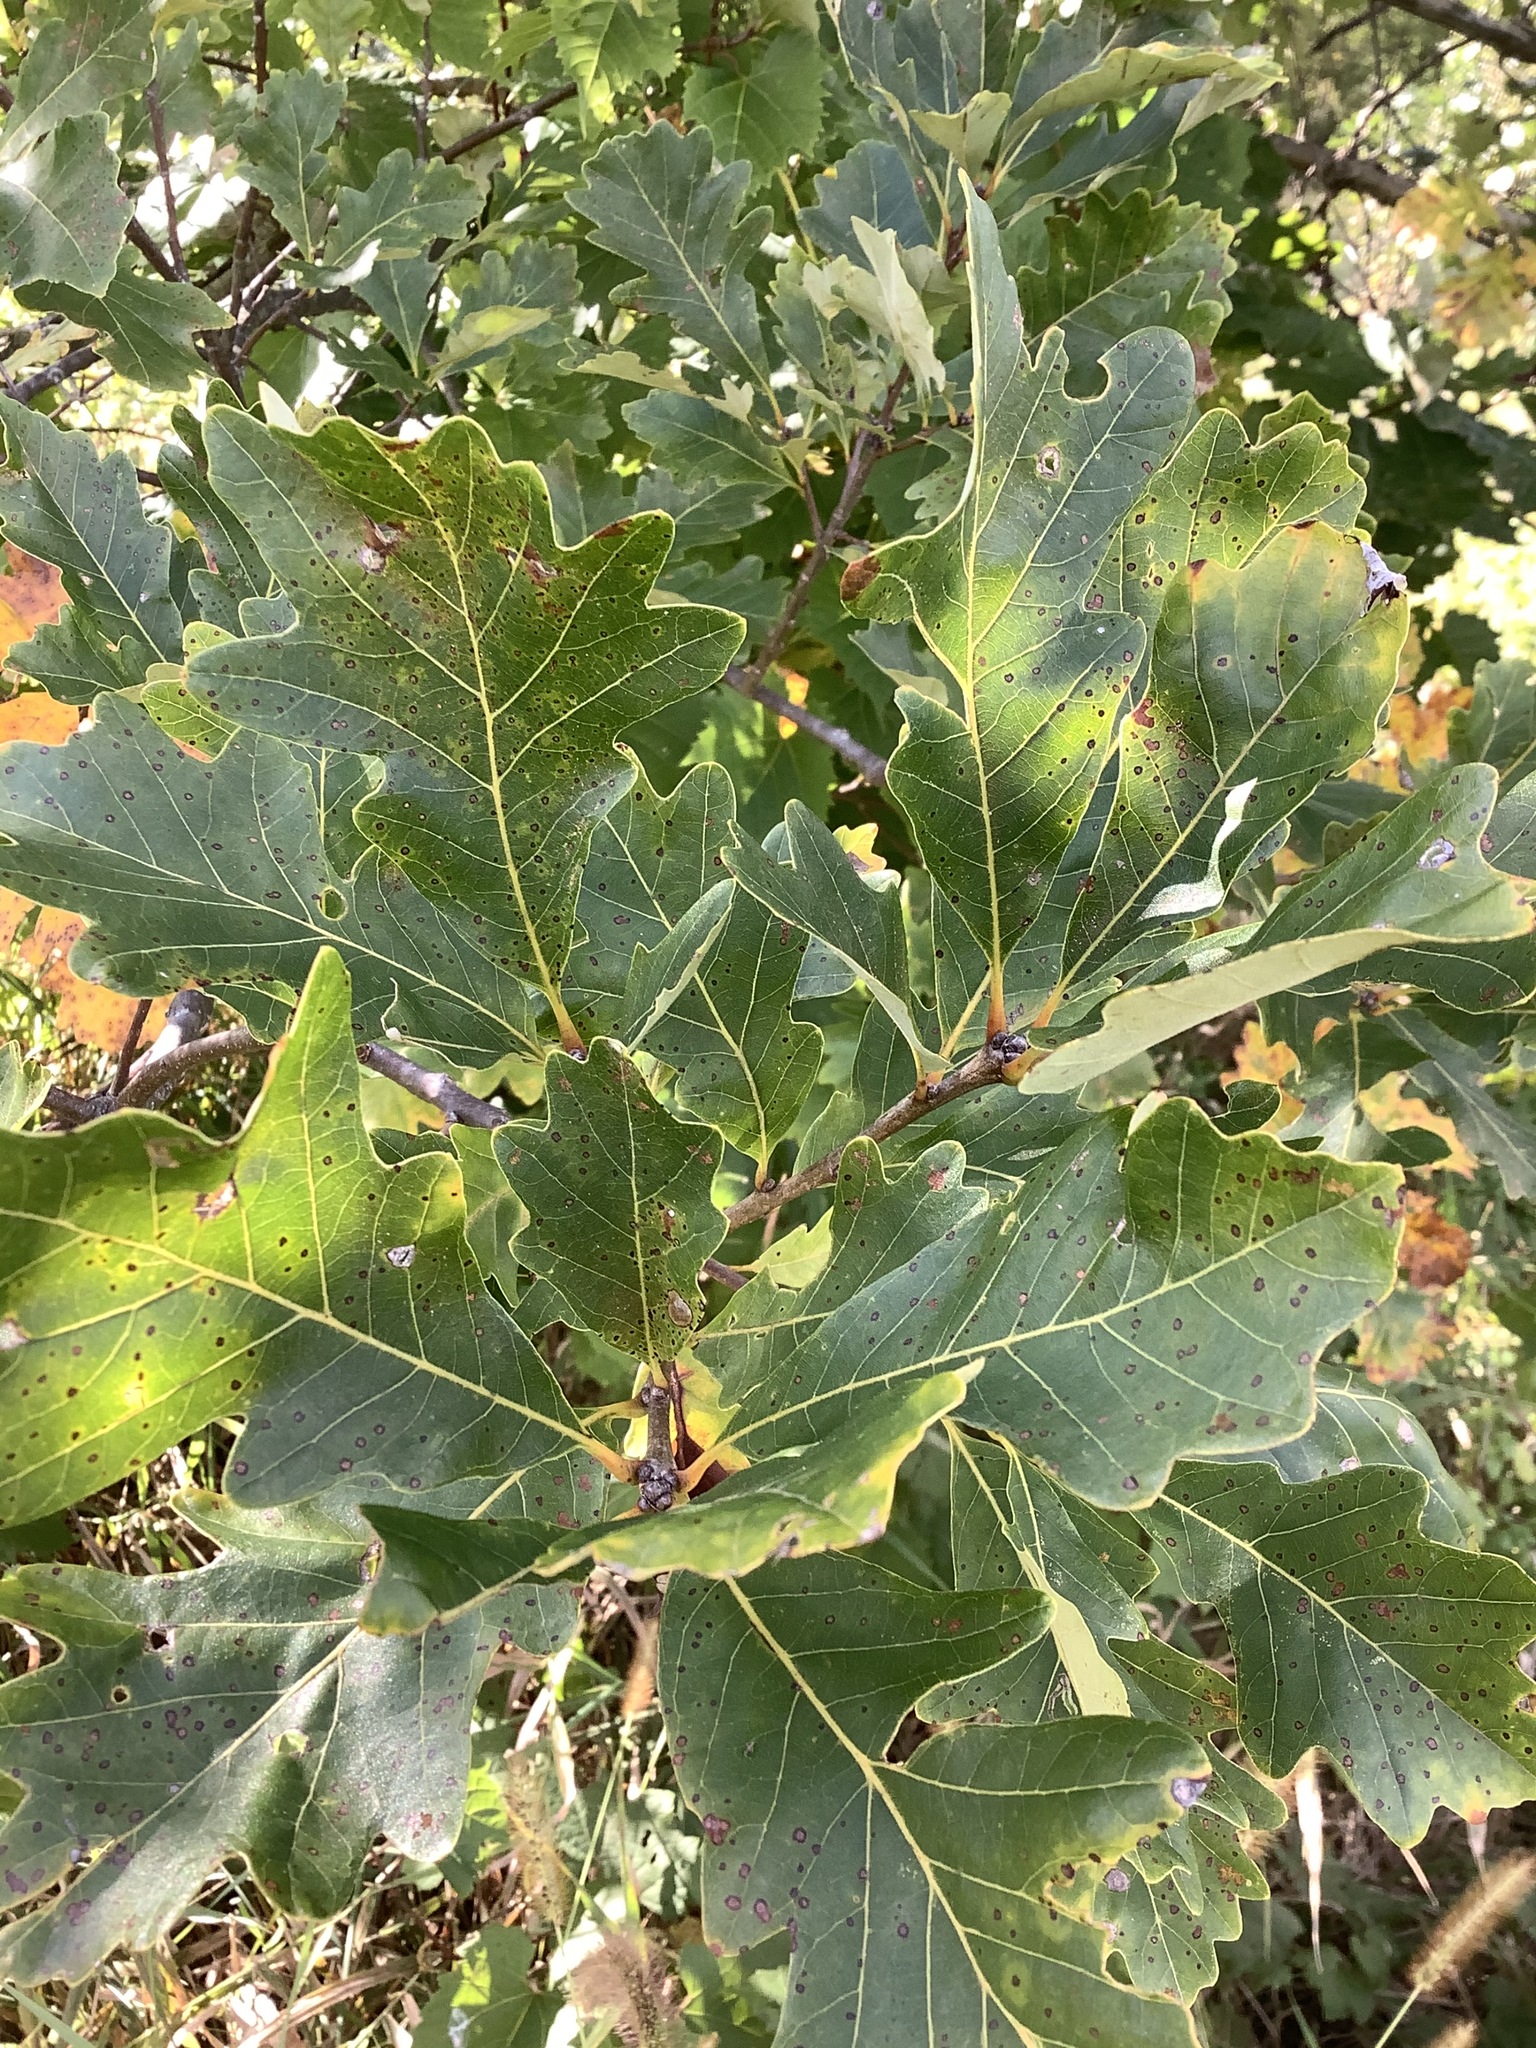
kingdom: Plantae
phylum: Tracheophyta
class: Magnoliopsida
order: Fagales
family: Fagaceae
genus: Quercus
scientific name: Quercus macrocarpa
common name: Bur oak
